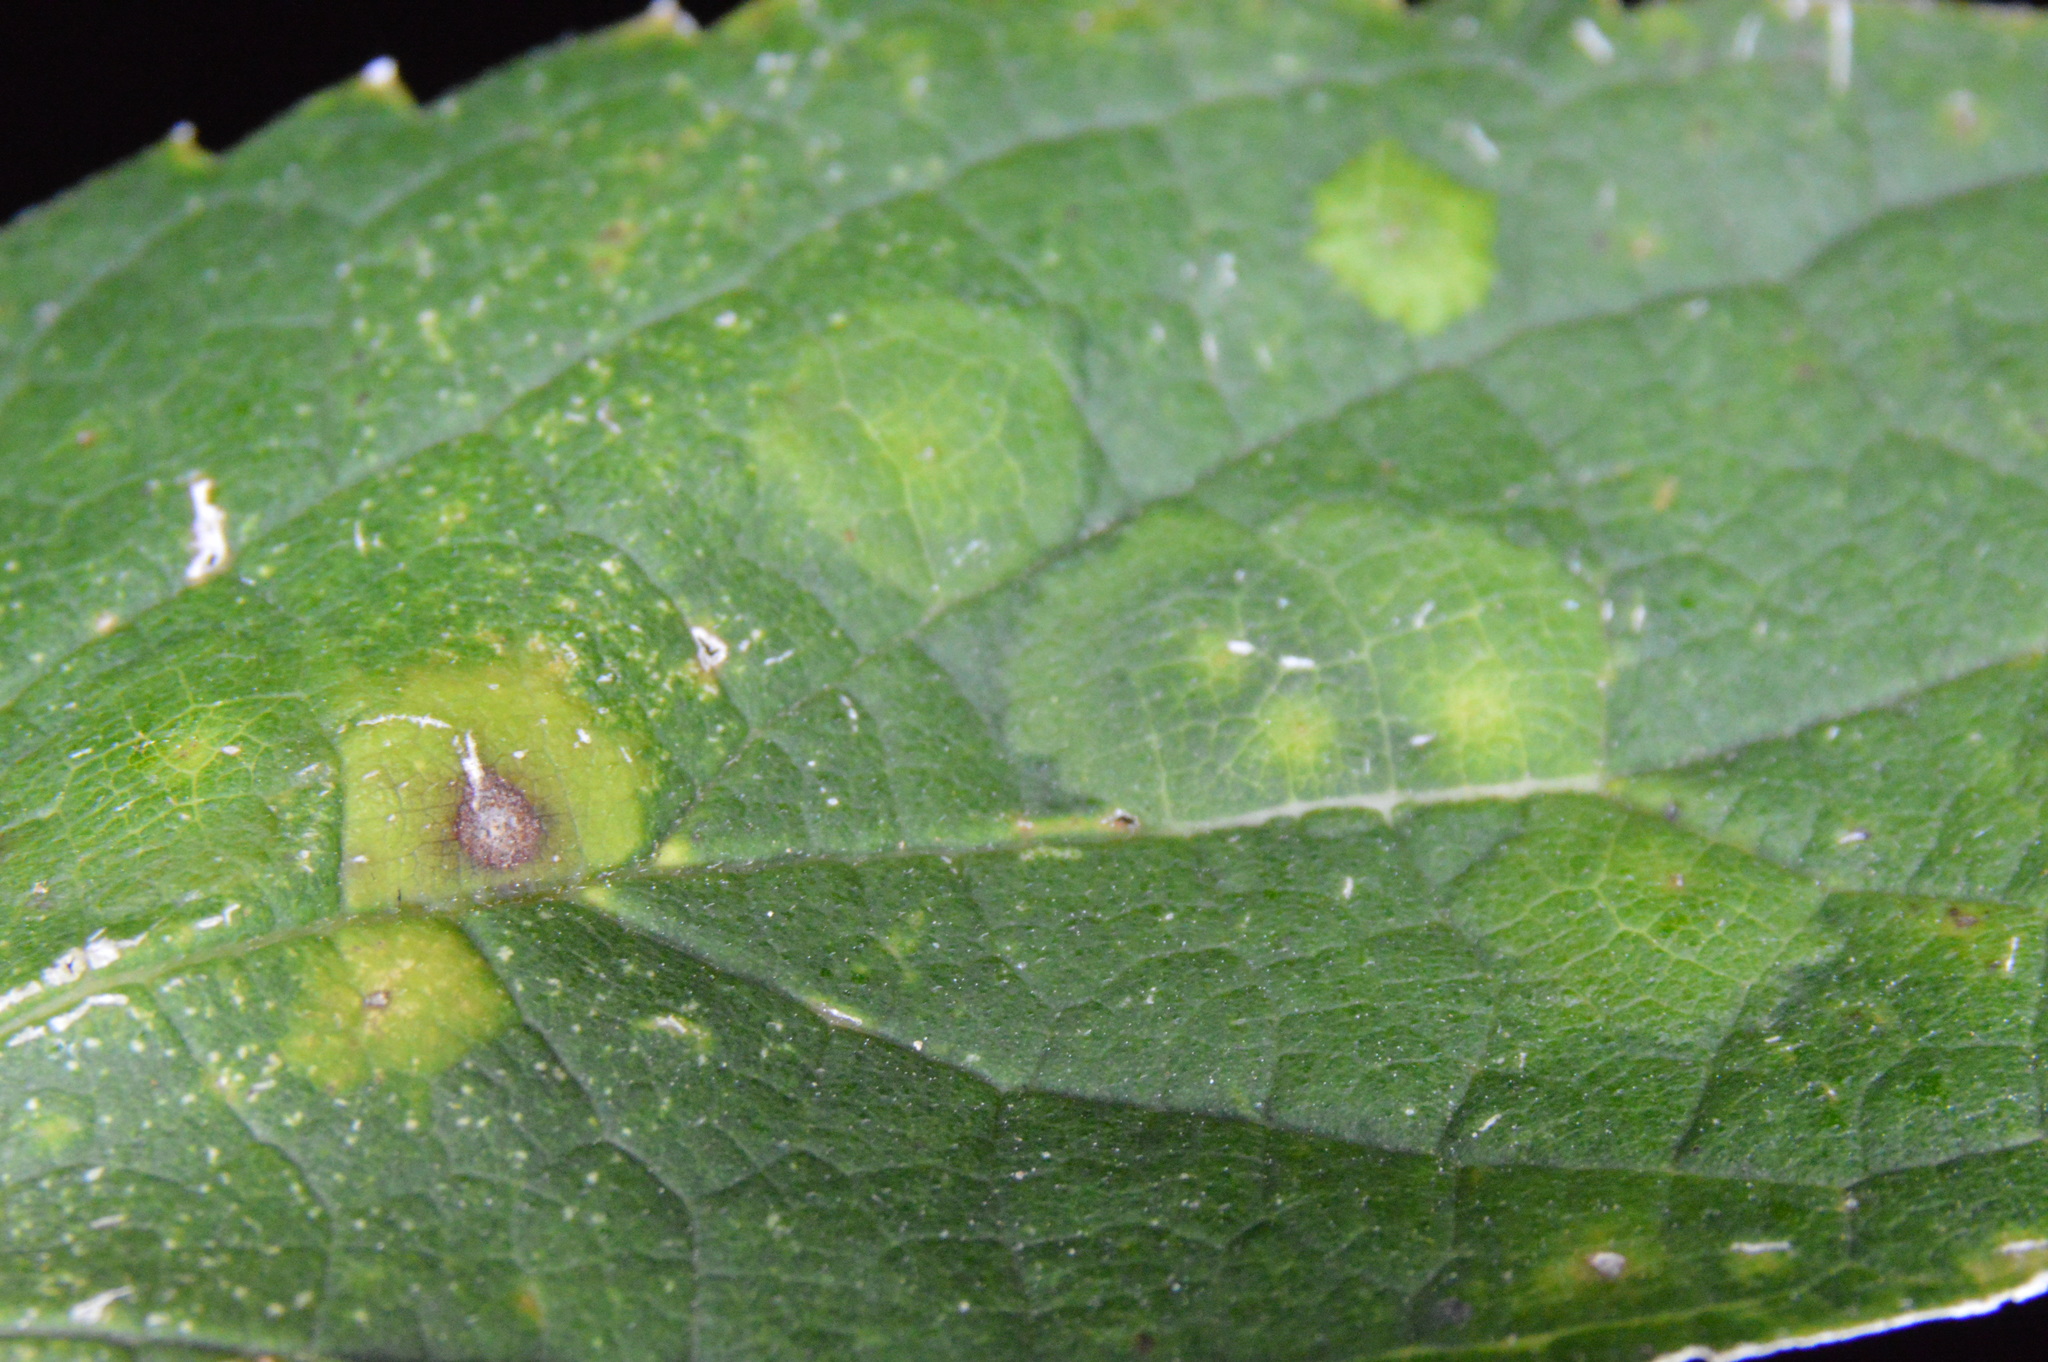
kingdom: Animalia
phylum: Arthropoda
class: Insecta
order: Hemiptera
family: Aphalaridae
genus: Pachypsylla
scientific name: Pachypsylla celtidisvesicula
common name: Hackberry blister gall psyllid
